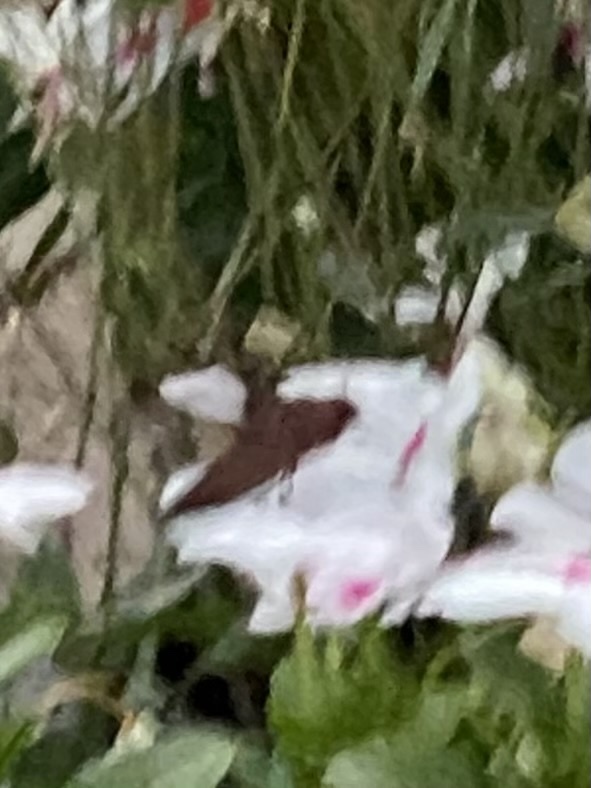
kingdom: Animalia
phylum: Arthropoda
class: Insecta
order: Lepidoptera
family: Sphingidae
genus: Enyo
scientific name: Enyo lugubris
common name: Mournful sphinx
